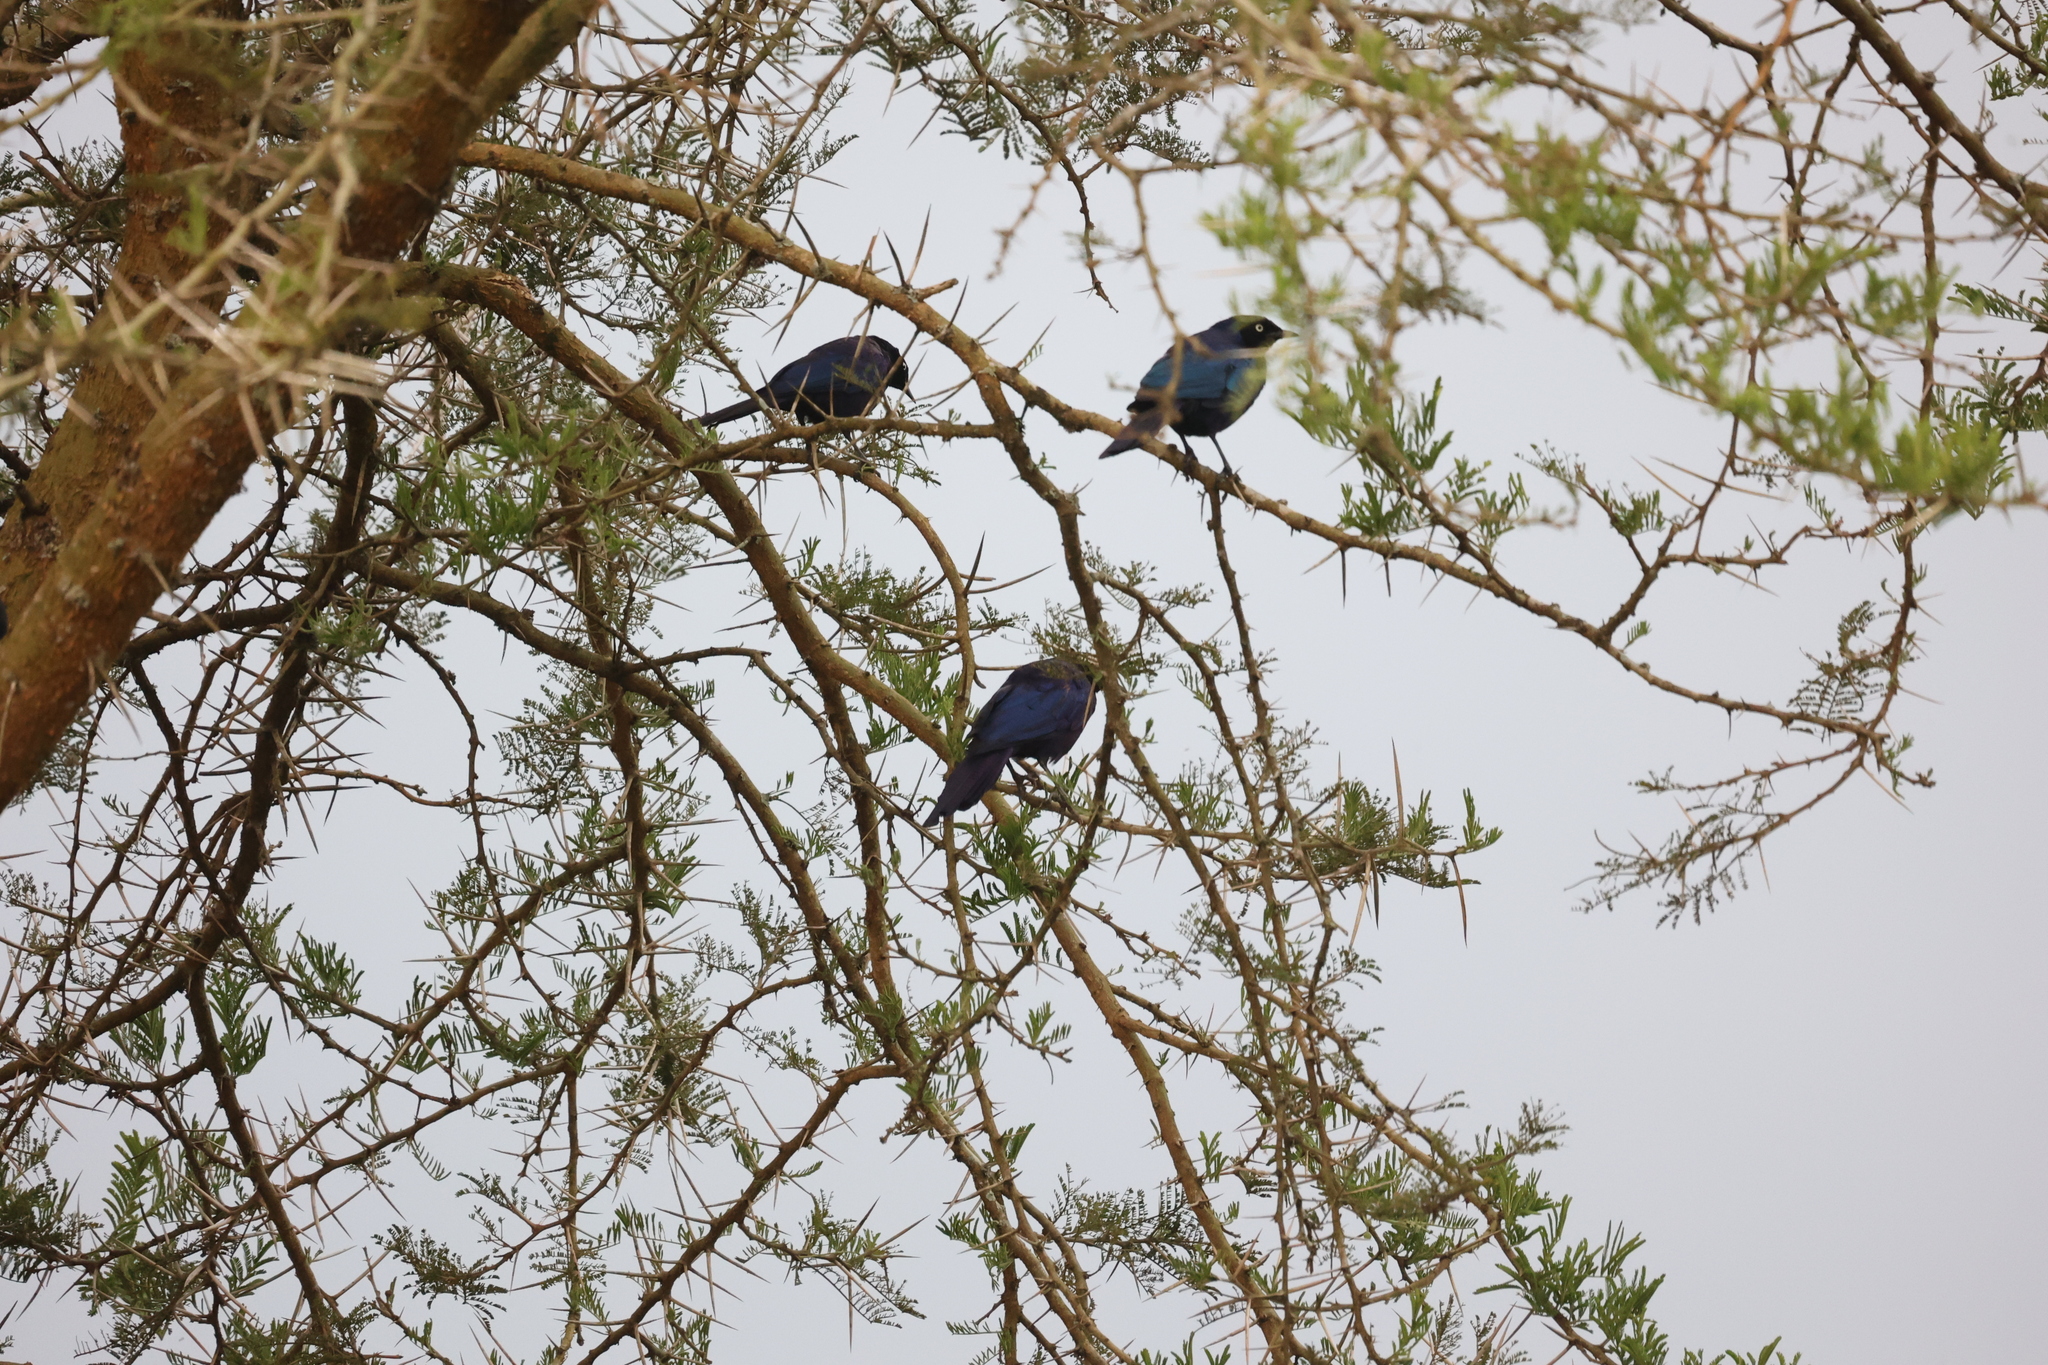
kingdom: Animalia
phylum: Chordata
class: Aves
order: Passeriformes
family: Sturnidae
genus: Lamprotornis
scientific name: Lamprotornis purpuroptera
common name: Rüppell's starling
